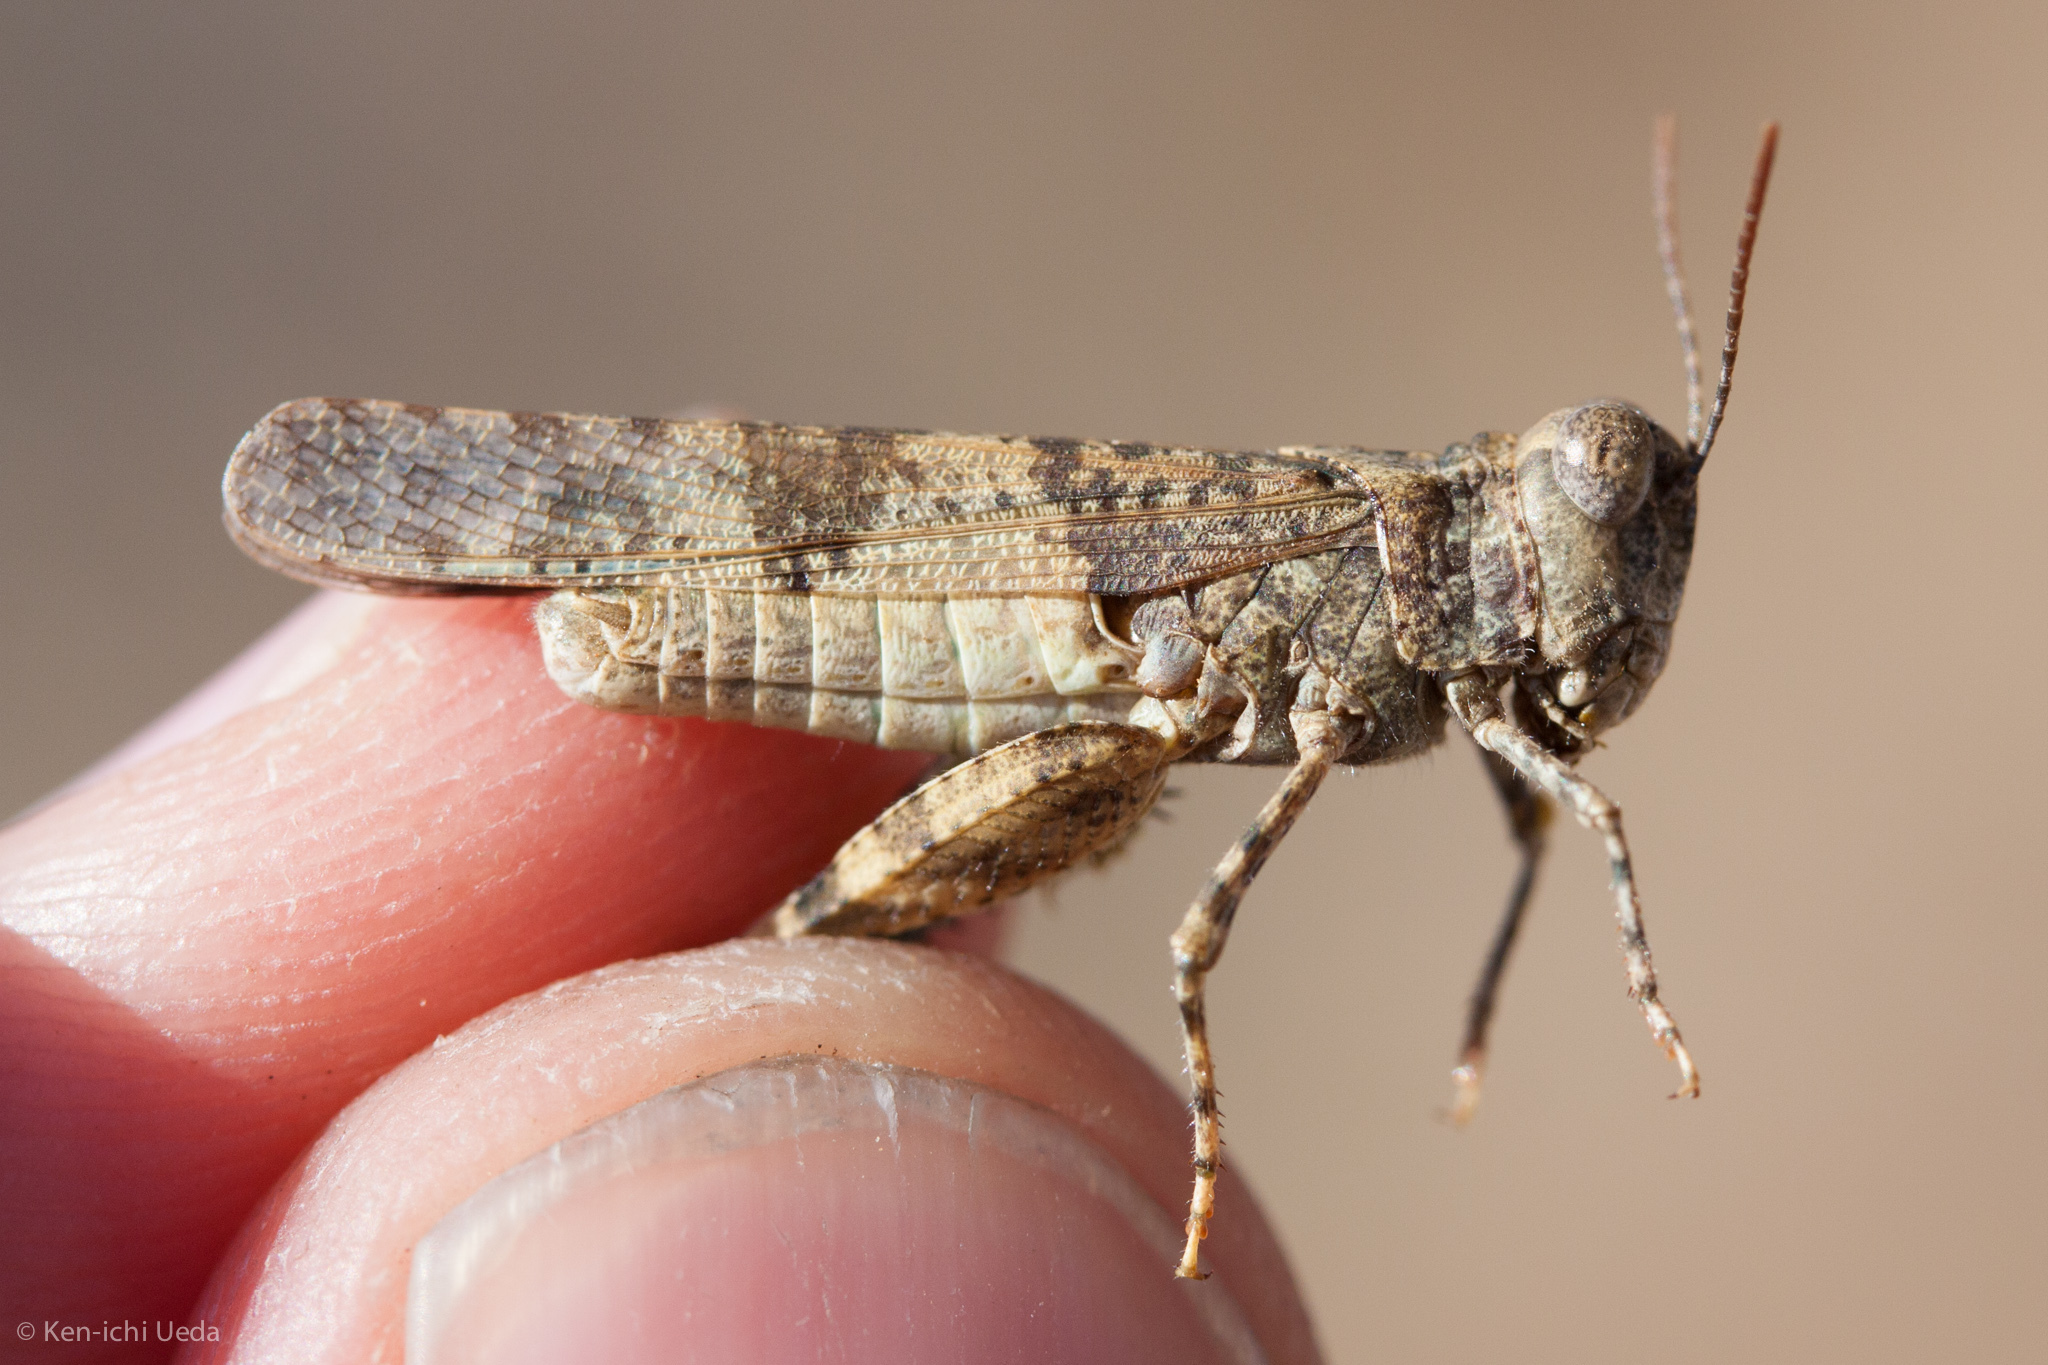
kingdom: Animalia
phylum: Arthropoda
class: Insecta
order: Orthoptera
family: Acrididae
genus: Trimerotropis
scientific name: Trimerotropis occidentalis
